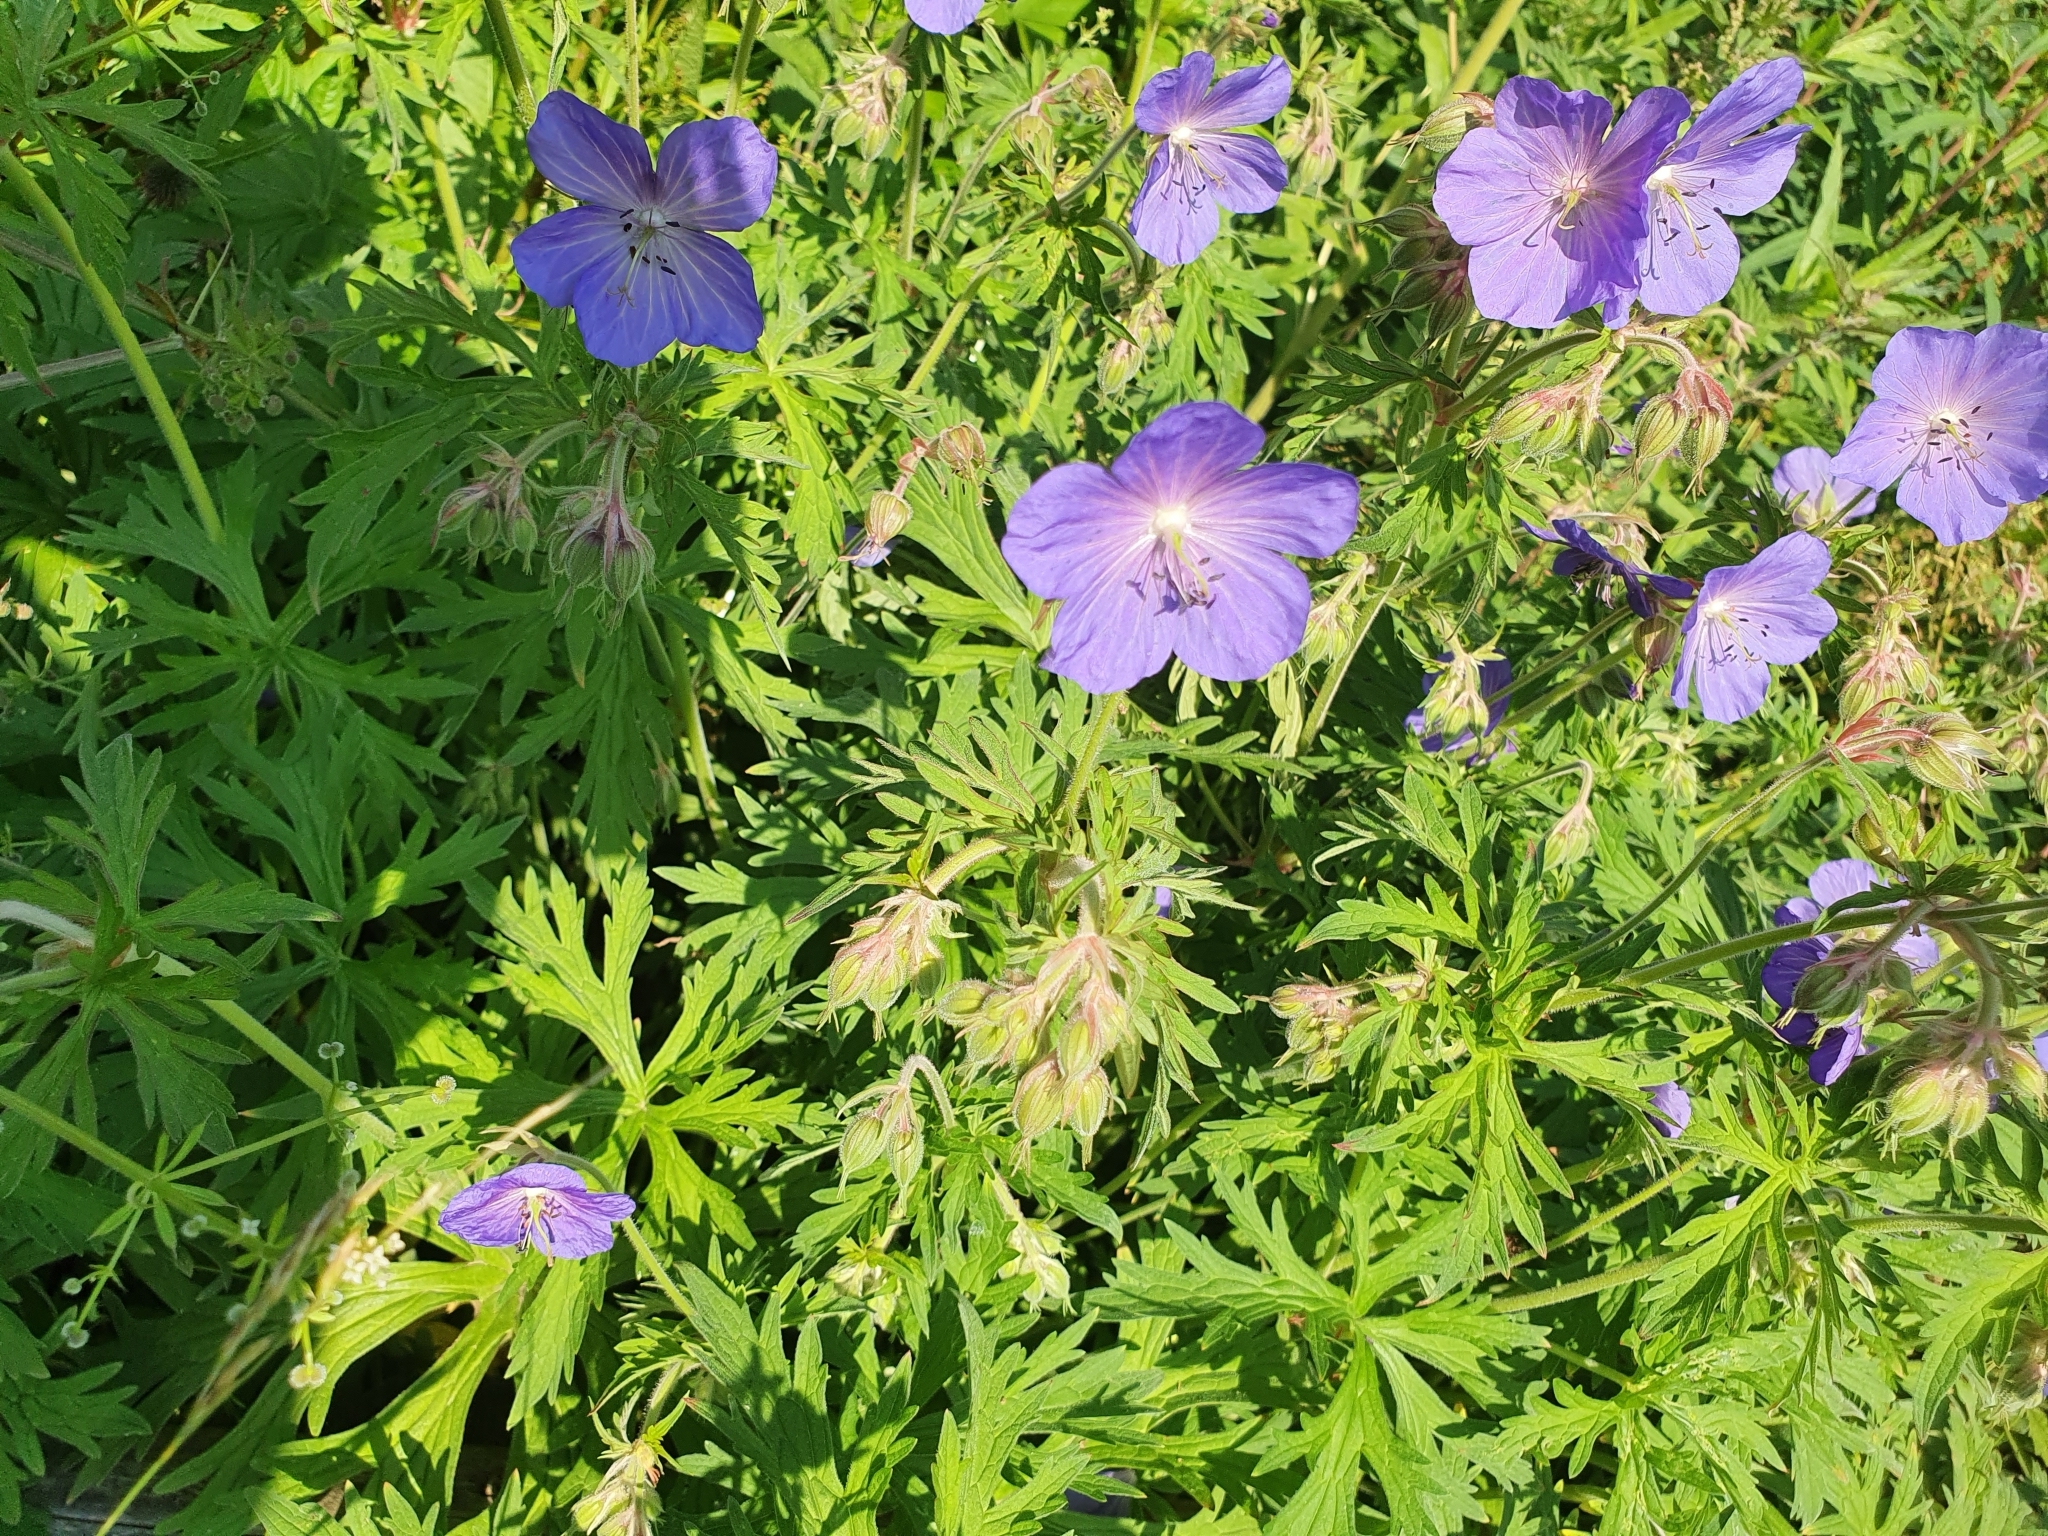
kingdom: Plantae
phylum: Tracheophyta
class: Magnoliopsida
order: Geraniales
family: Geraniaceae
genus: Geranium
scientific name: Geranium pratense
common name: Meadow crane's-bill
